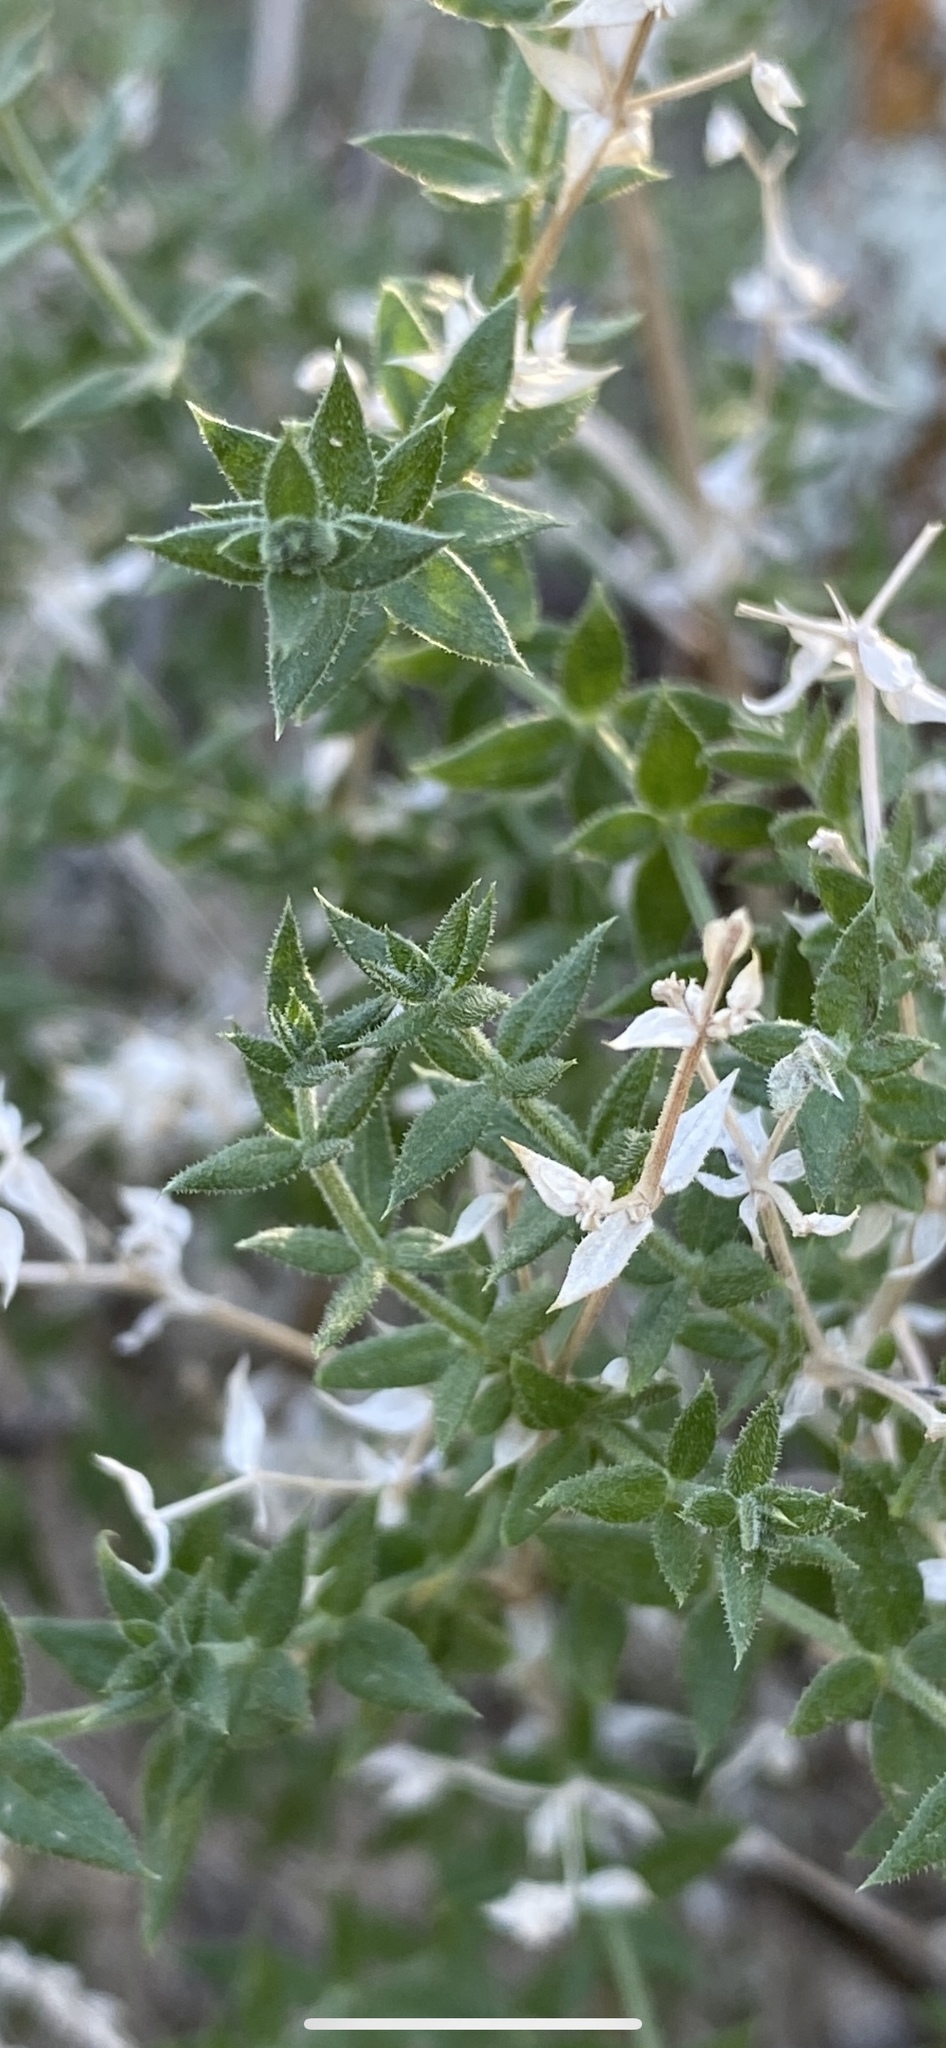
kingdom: Plantae
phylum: Tracheophyta
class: Magnoliopsida
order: Gentianales
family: Rubiaceae
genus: Galium
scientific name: Galium stellatum
